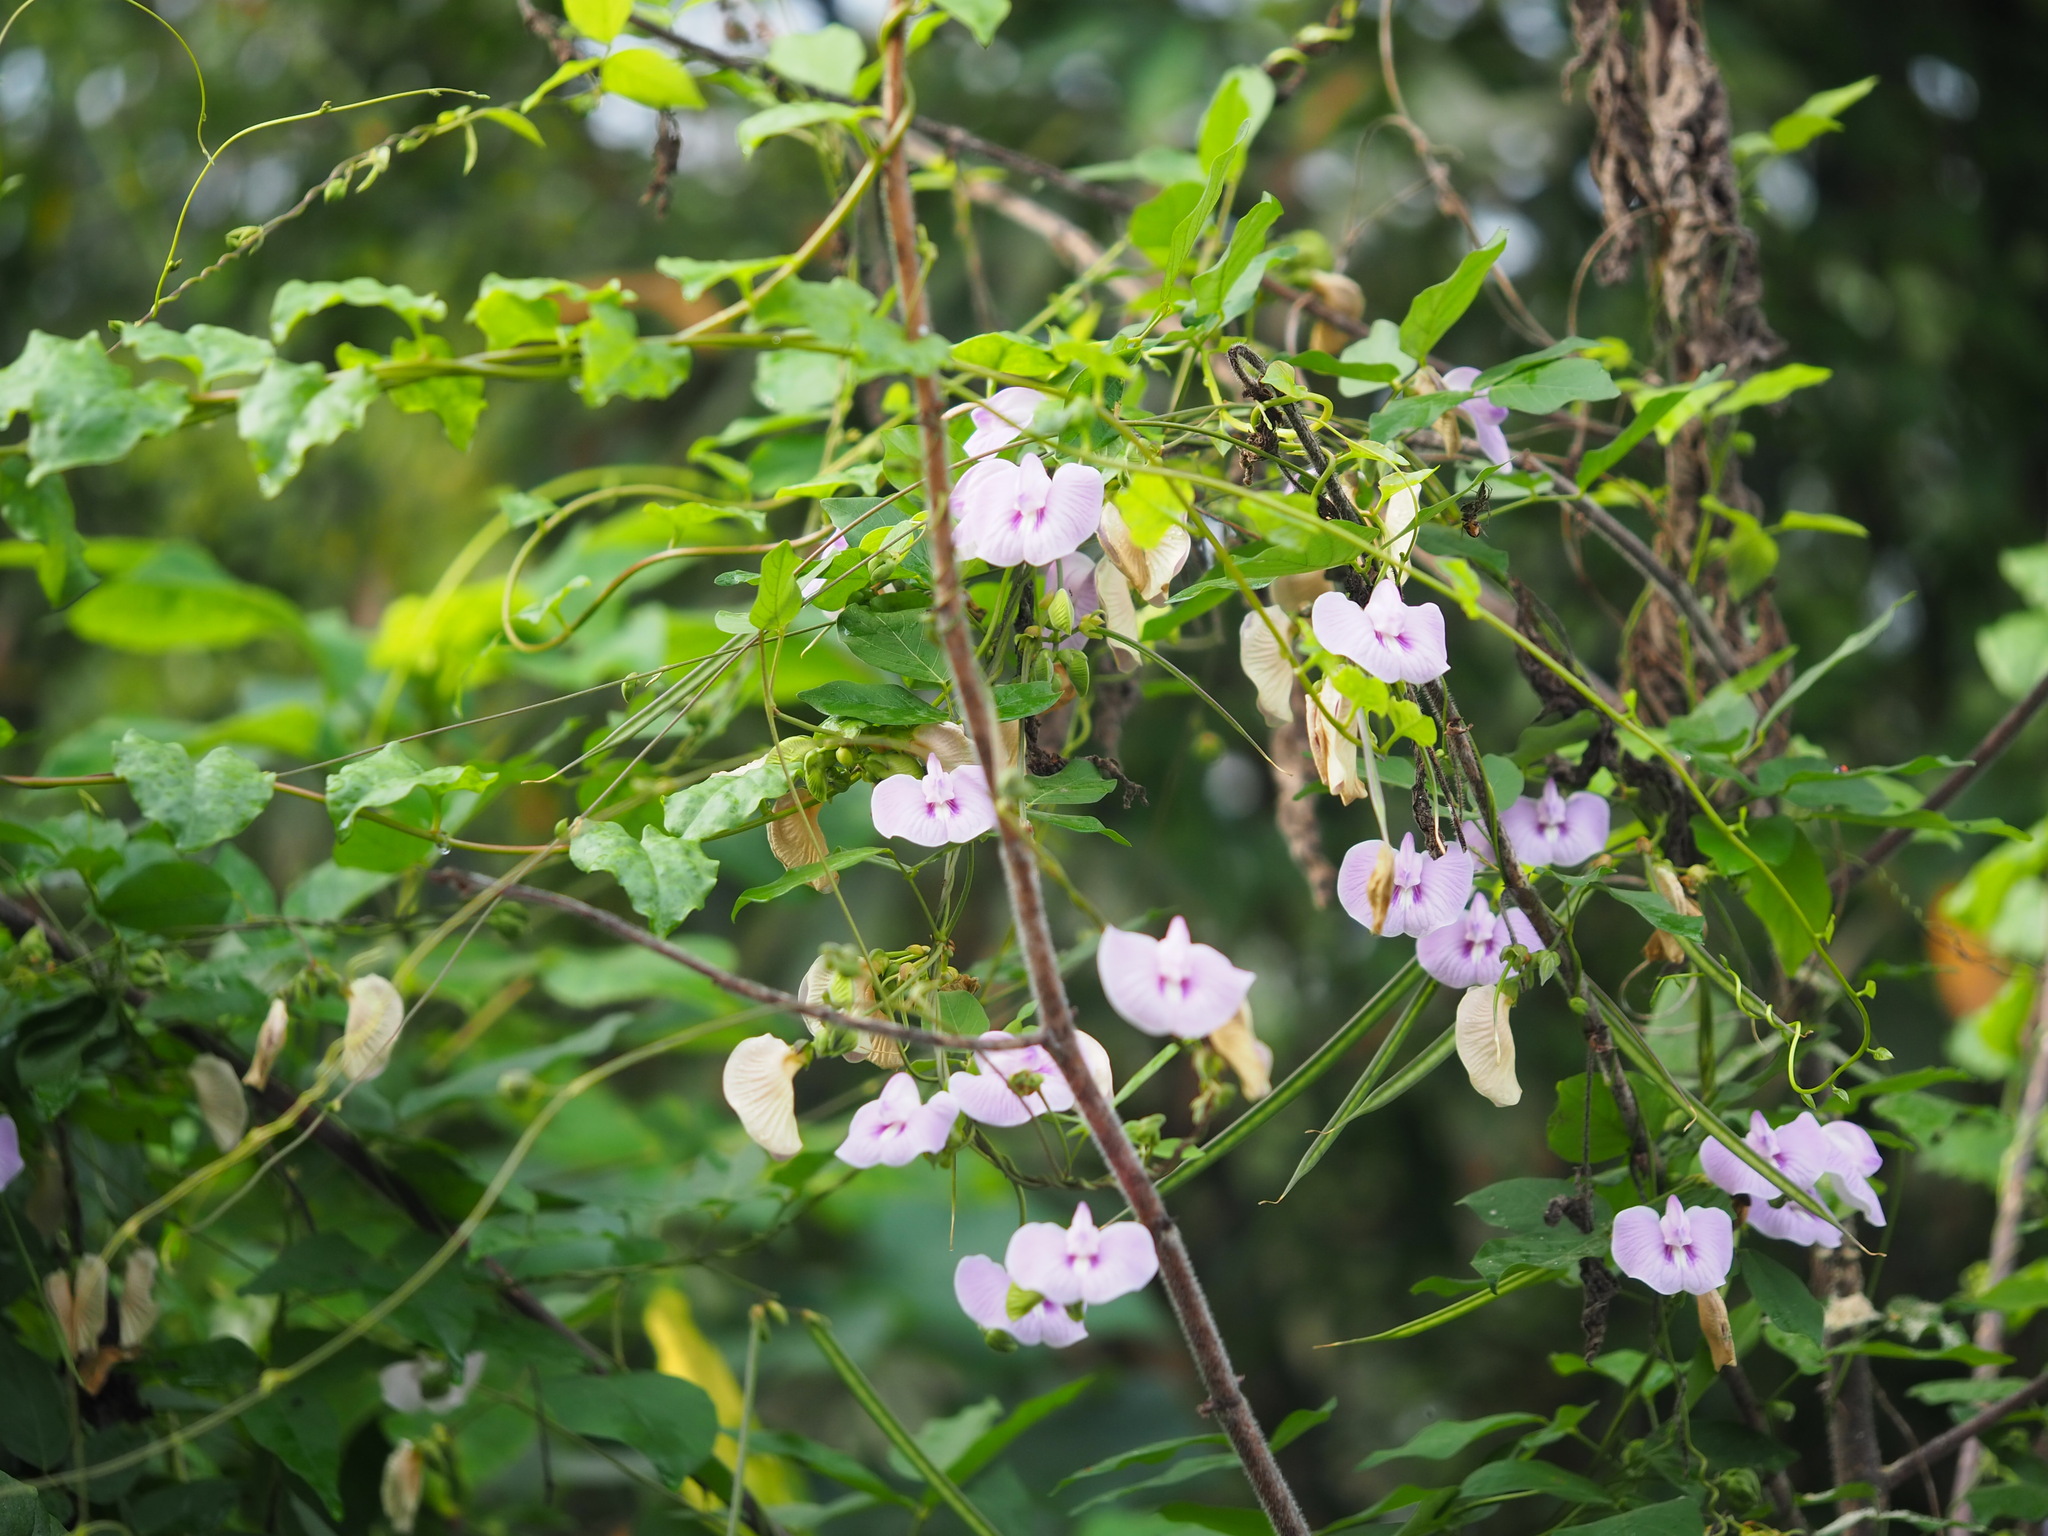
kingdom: Plantae
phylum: Tracheophyta
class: Magnoliopsida
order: Fabales
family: Fabaceae
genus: Centrosema
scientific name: Centrosema pubescens
